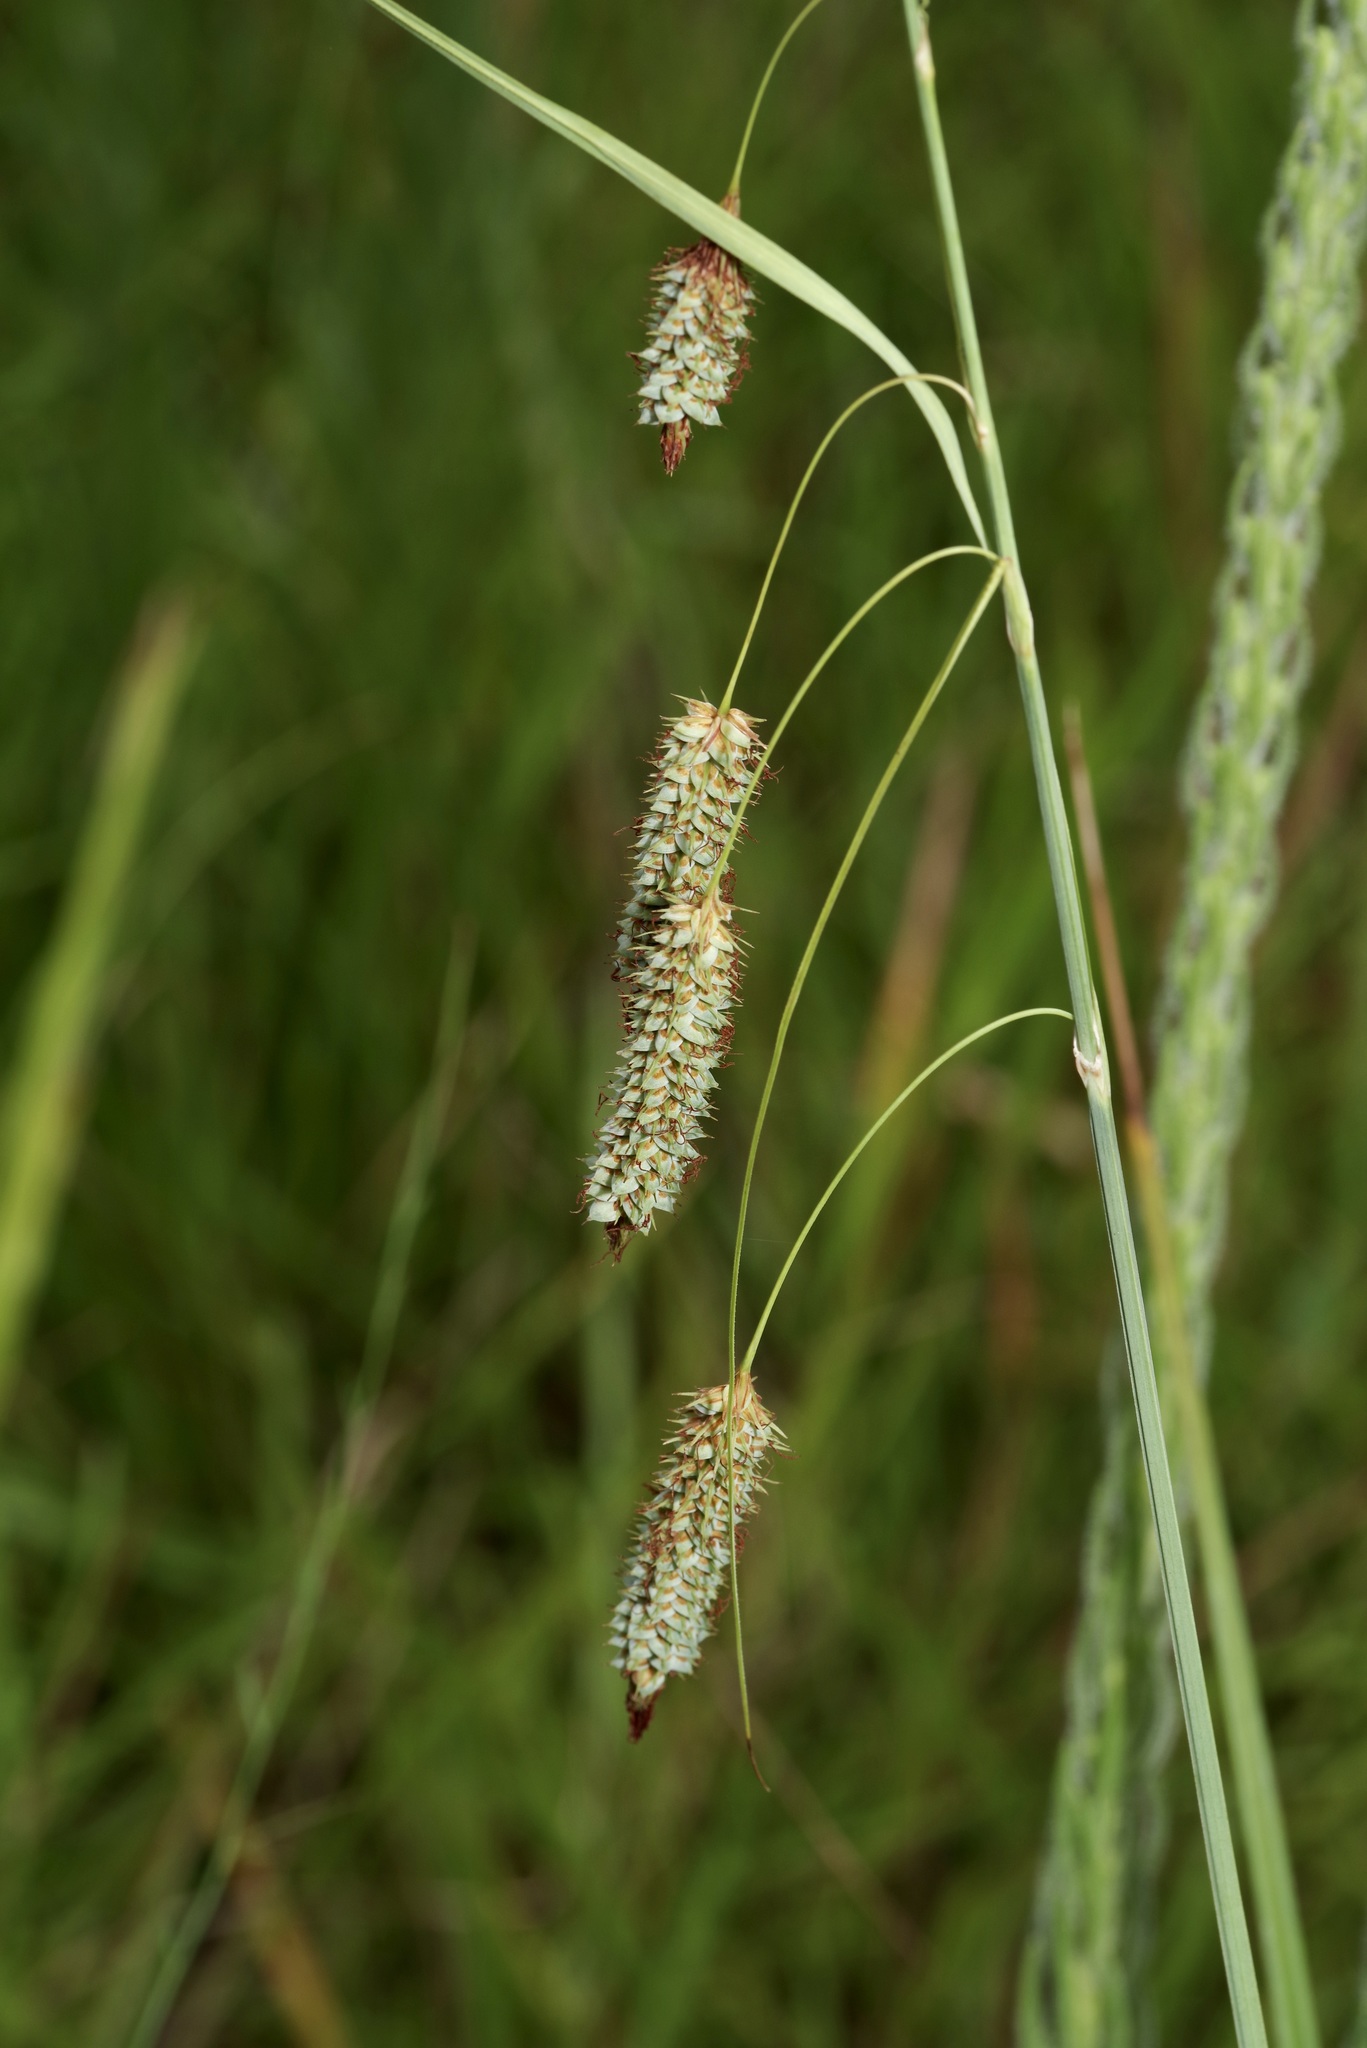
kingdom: Plantae
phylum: Tracheophyta
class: Liliopsida
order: Poales
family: Cyperaceae
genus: Carex
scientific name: Carex glaucescens
